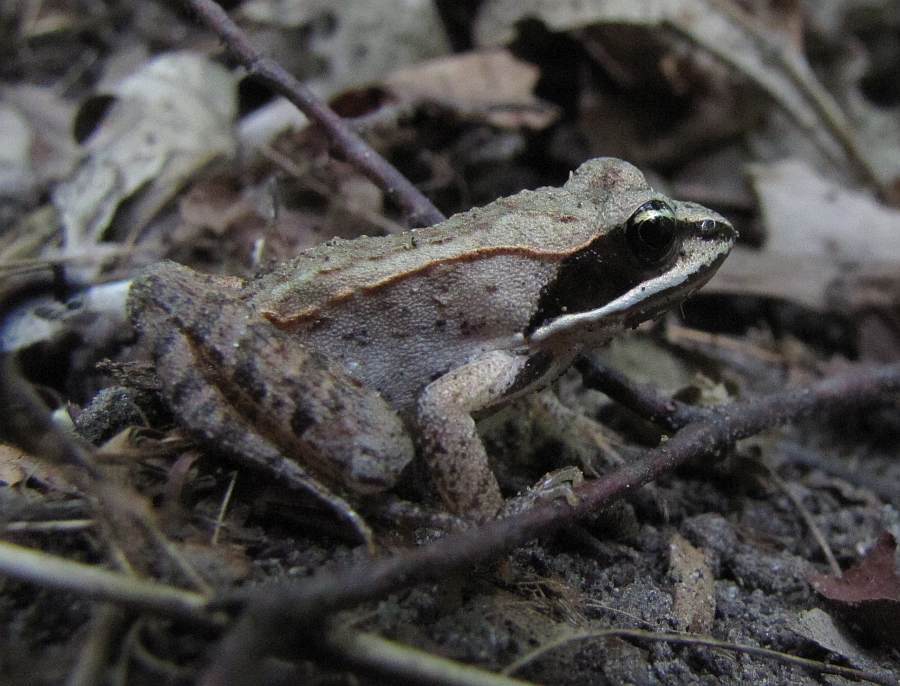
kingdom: Animalia
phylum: Chordata
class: Amphibia
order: Anura
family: Ranidae
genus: Lithobates
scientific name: Lithobates sylvaticus
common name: Wood frog
